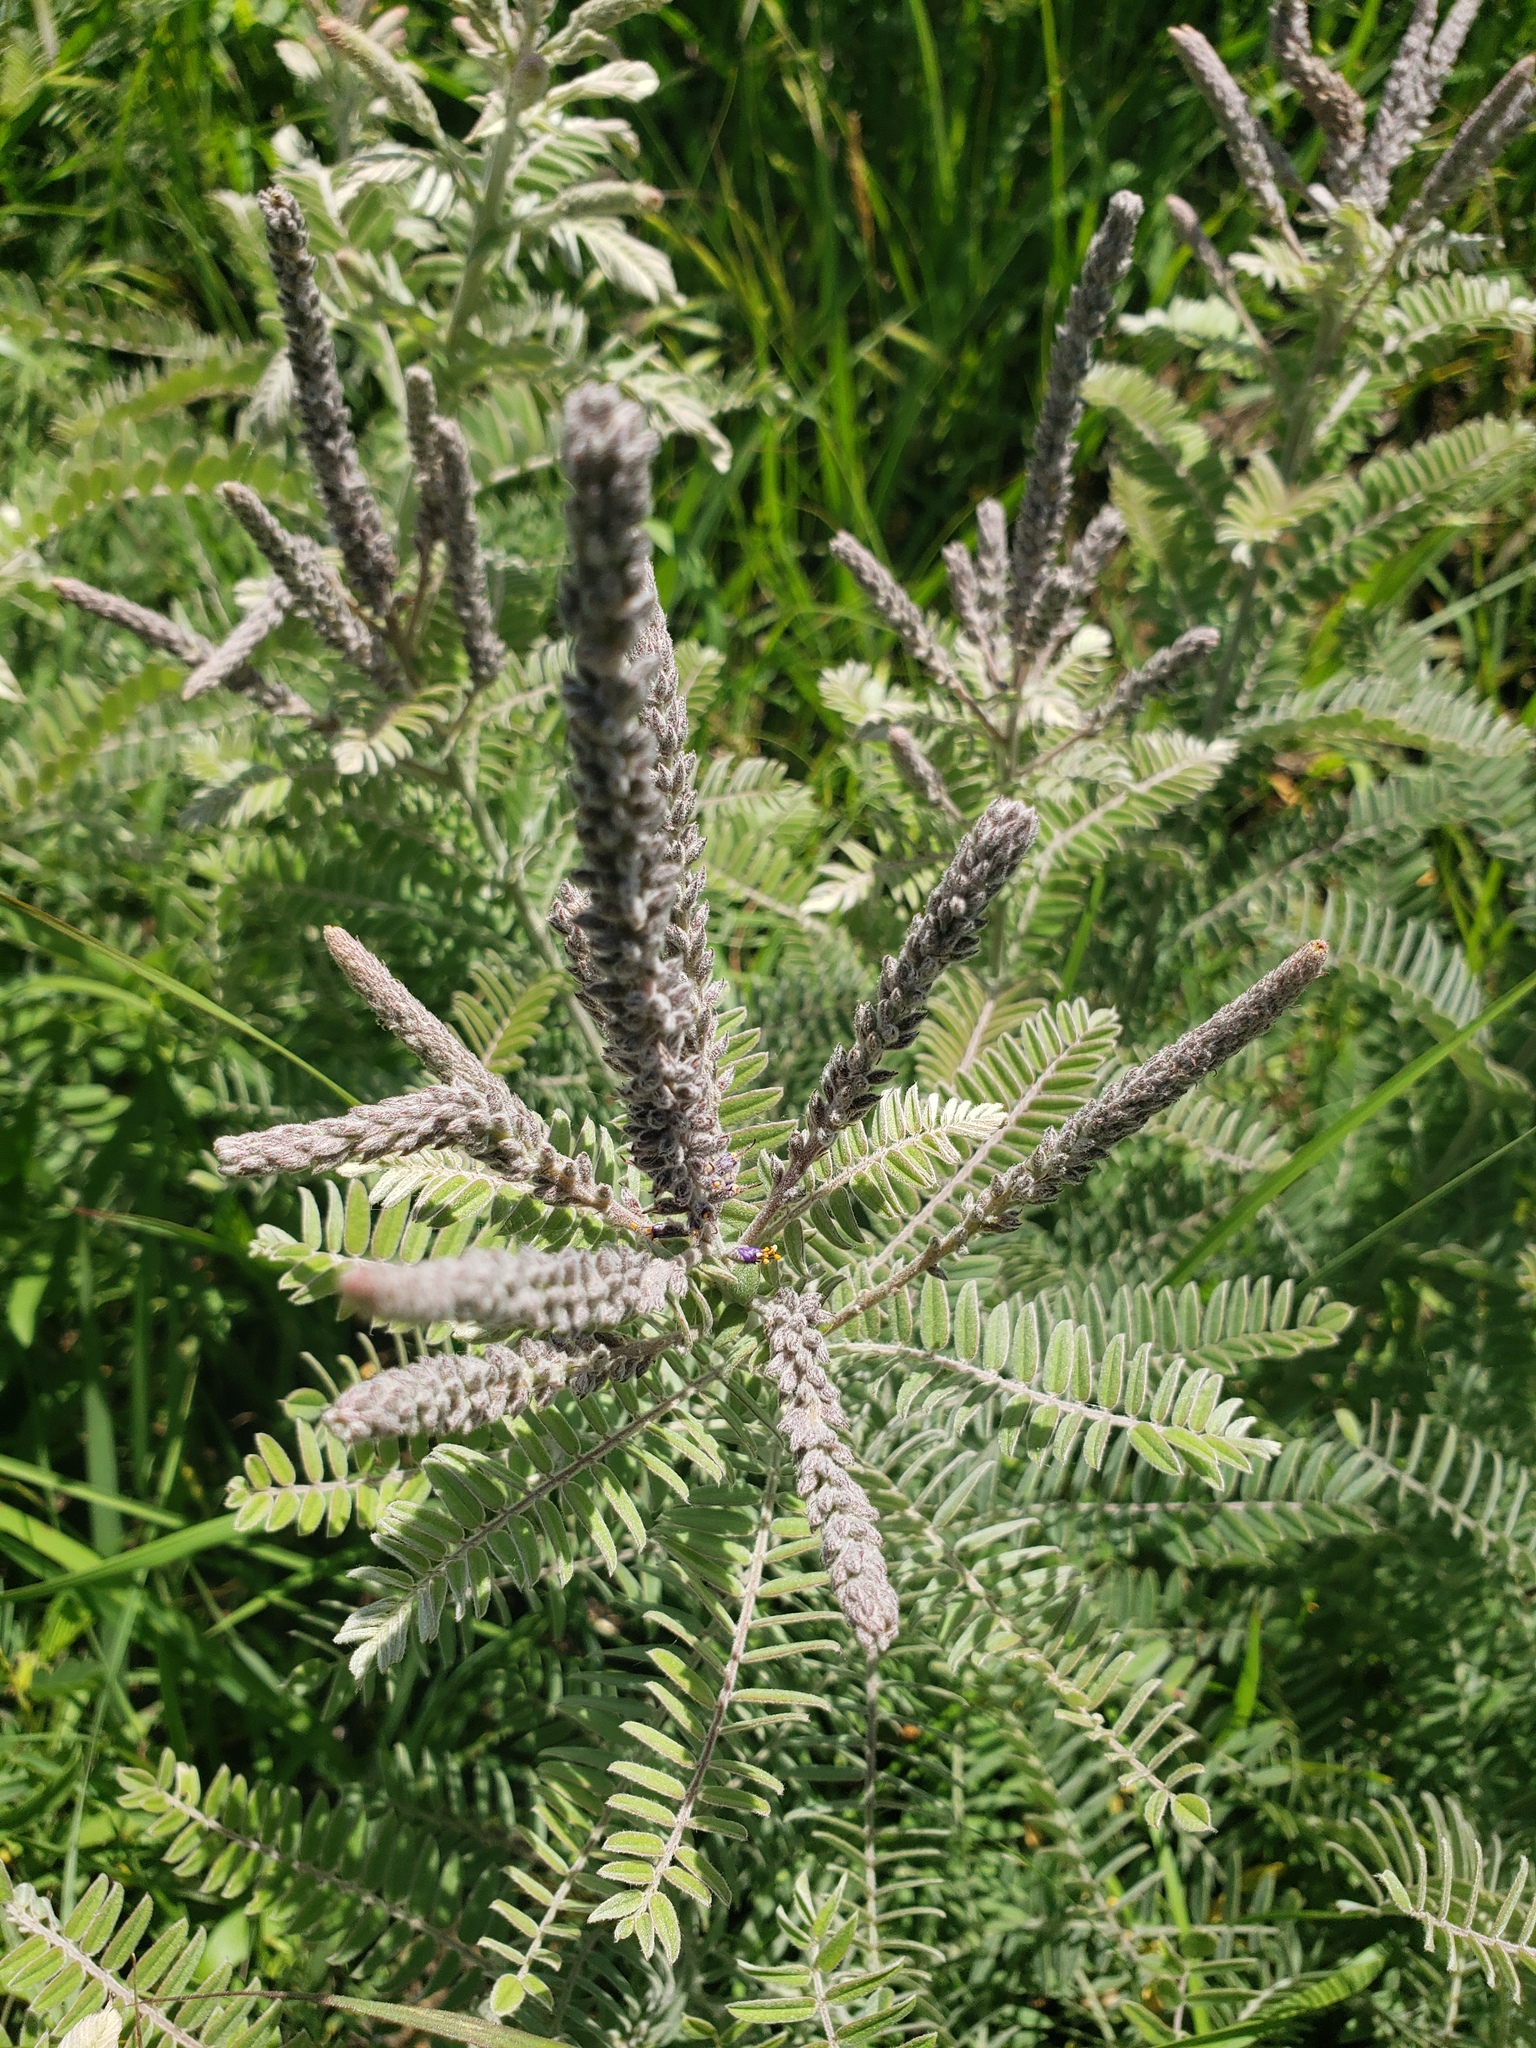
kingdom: Plantae
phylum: Tracheophyta
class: Magnoliopsida
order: Fabales
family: Fabaceae
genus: Amorpha
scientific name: Amorpha canescens
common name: Leadplant
